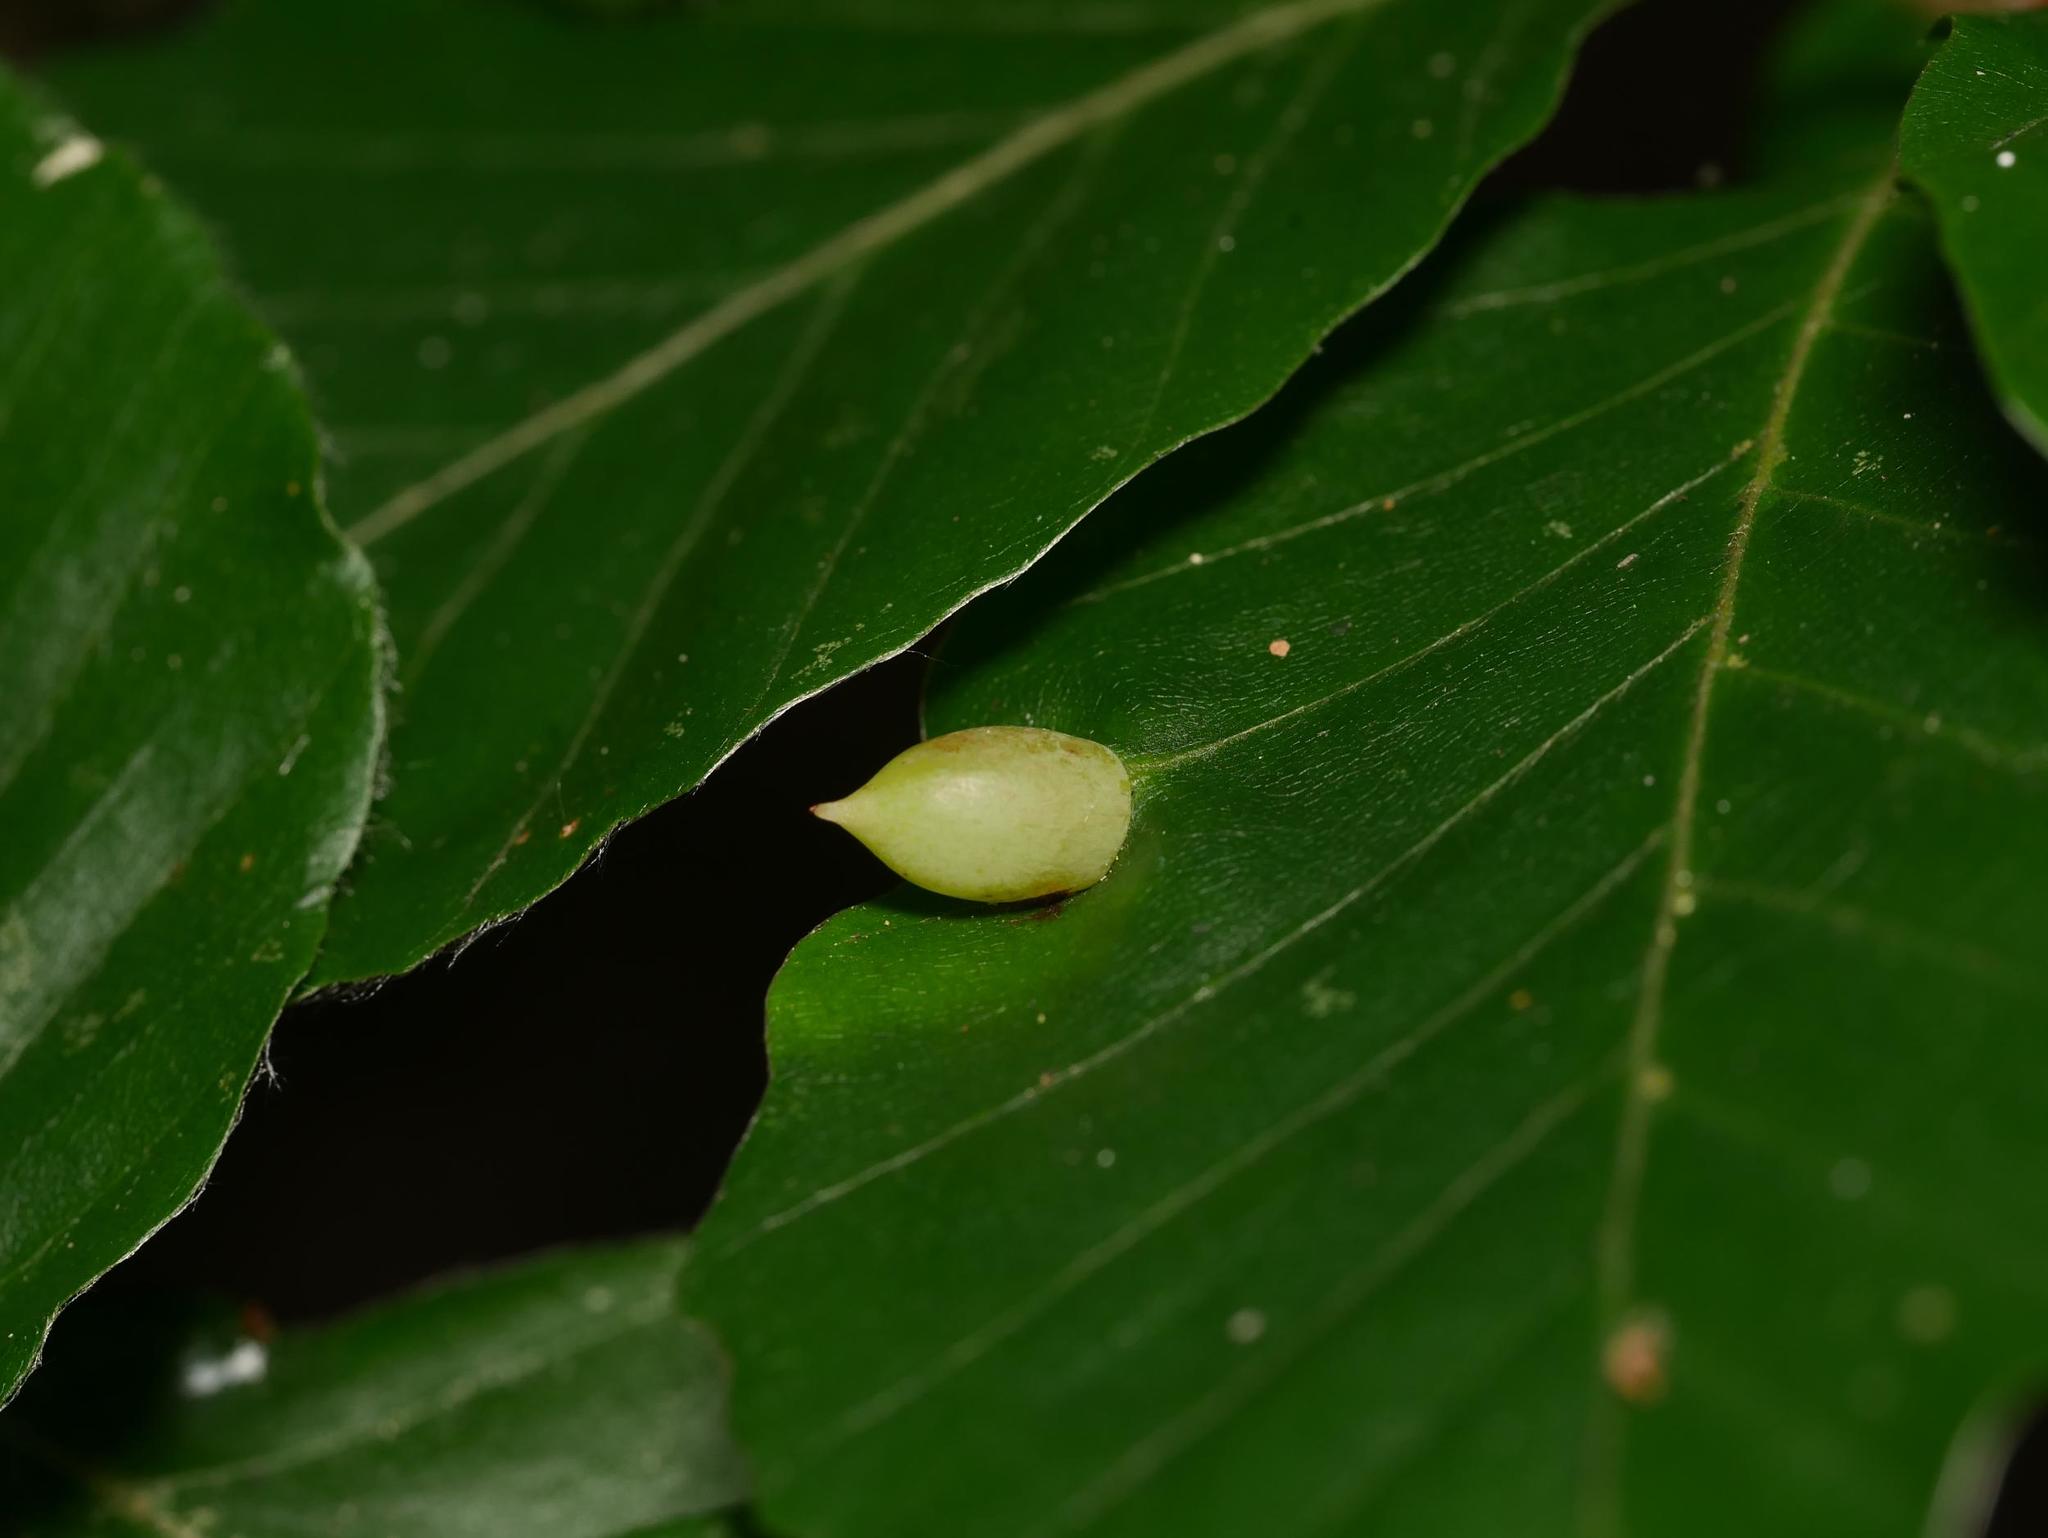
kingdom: Animalia
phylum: Arthropoda
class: Insecta
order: Diptera
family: Cecidomyiidae
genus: Mikiola
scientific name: Mikiola fagi
